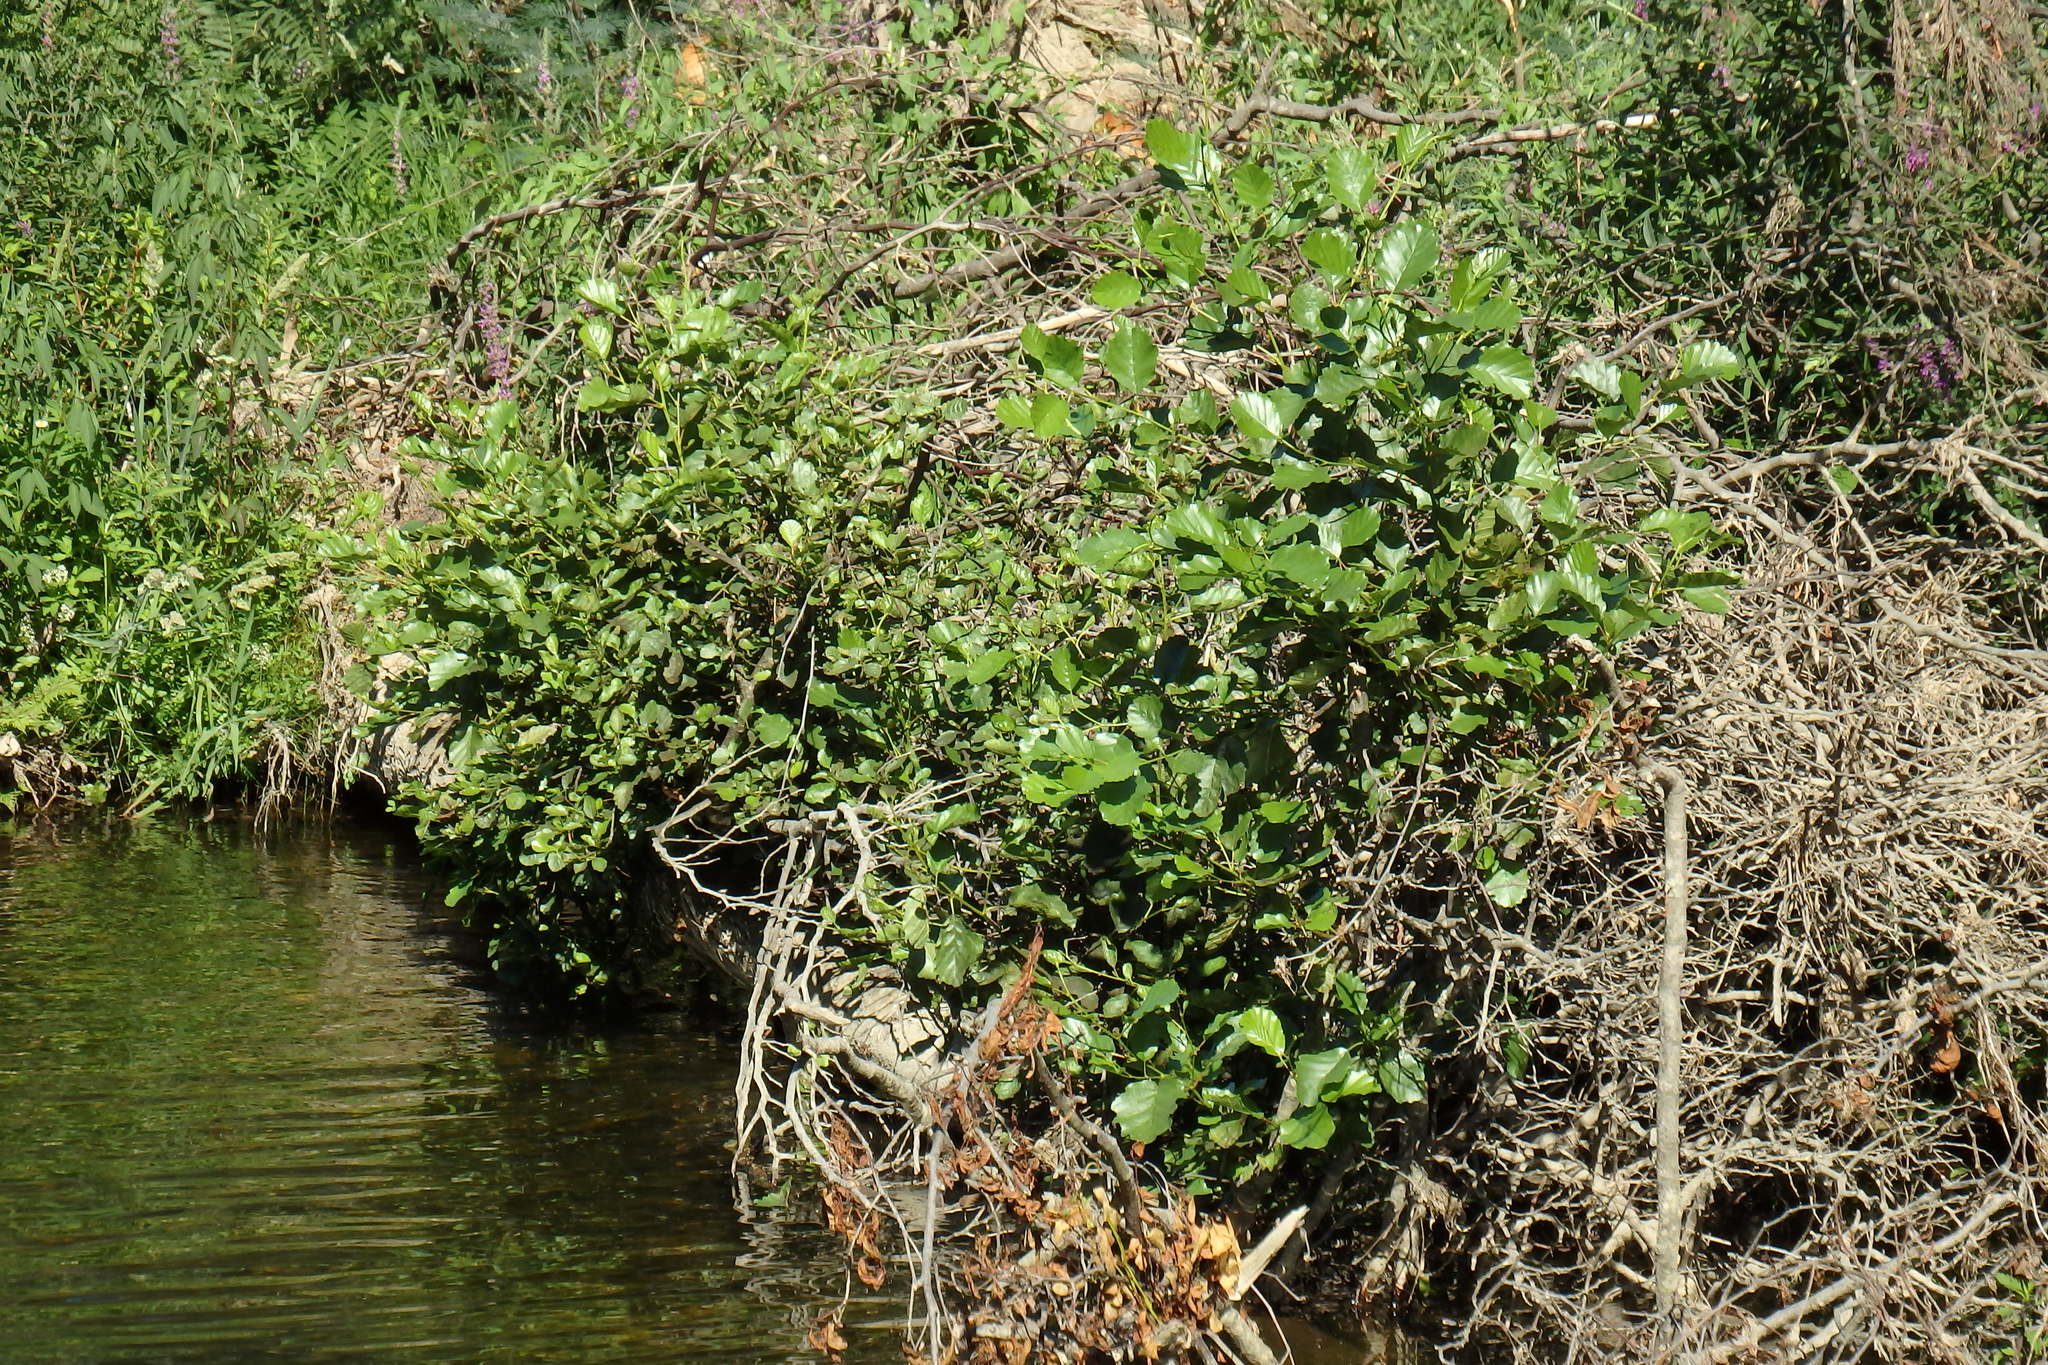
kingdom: Plantae
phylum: Tracheophyta
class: Magnoliopsida
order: Fagales
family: Betulaceae
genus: Alnus
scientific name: Alnus lusitanica
